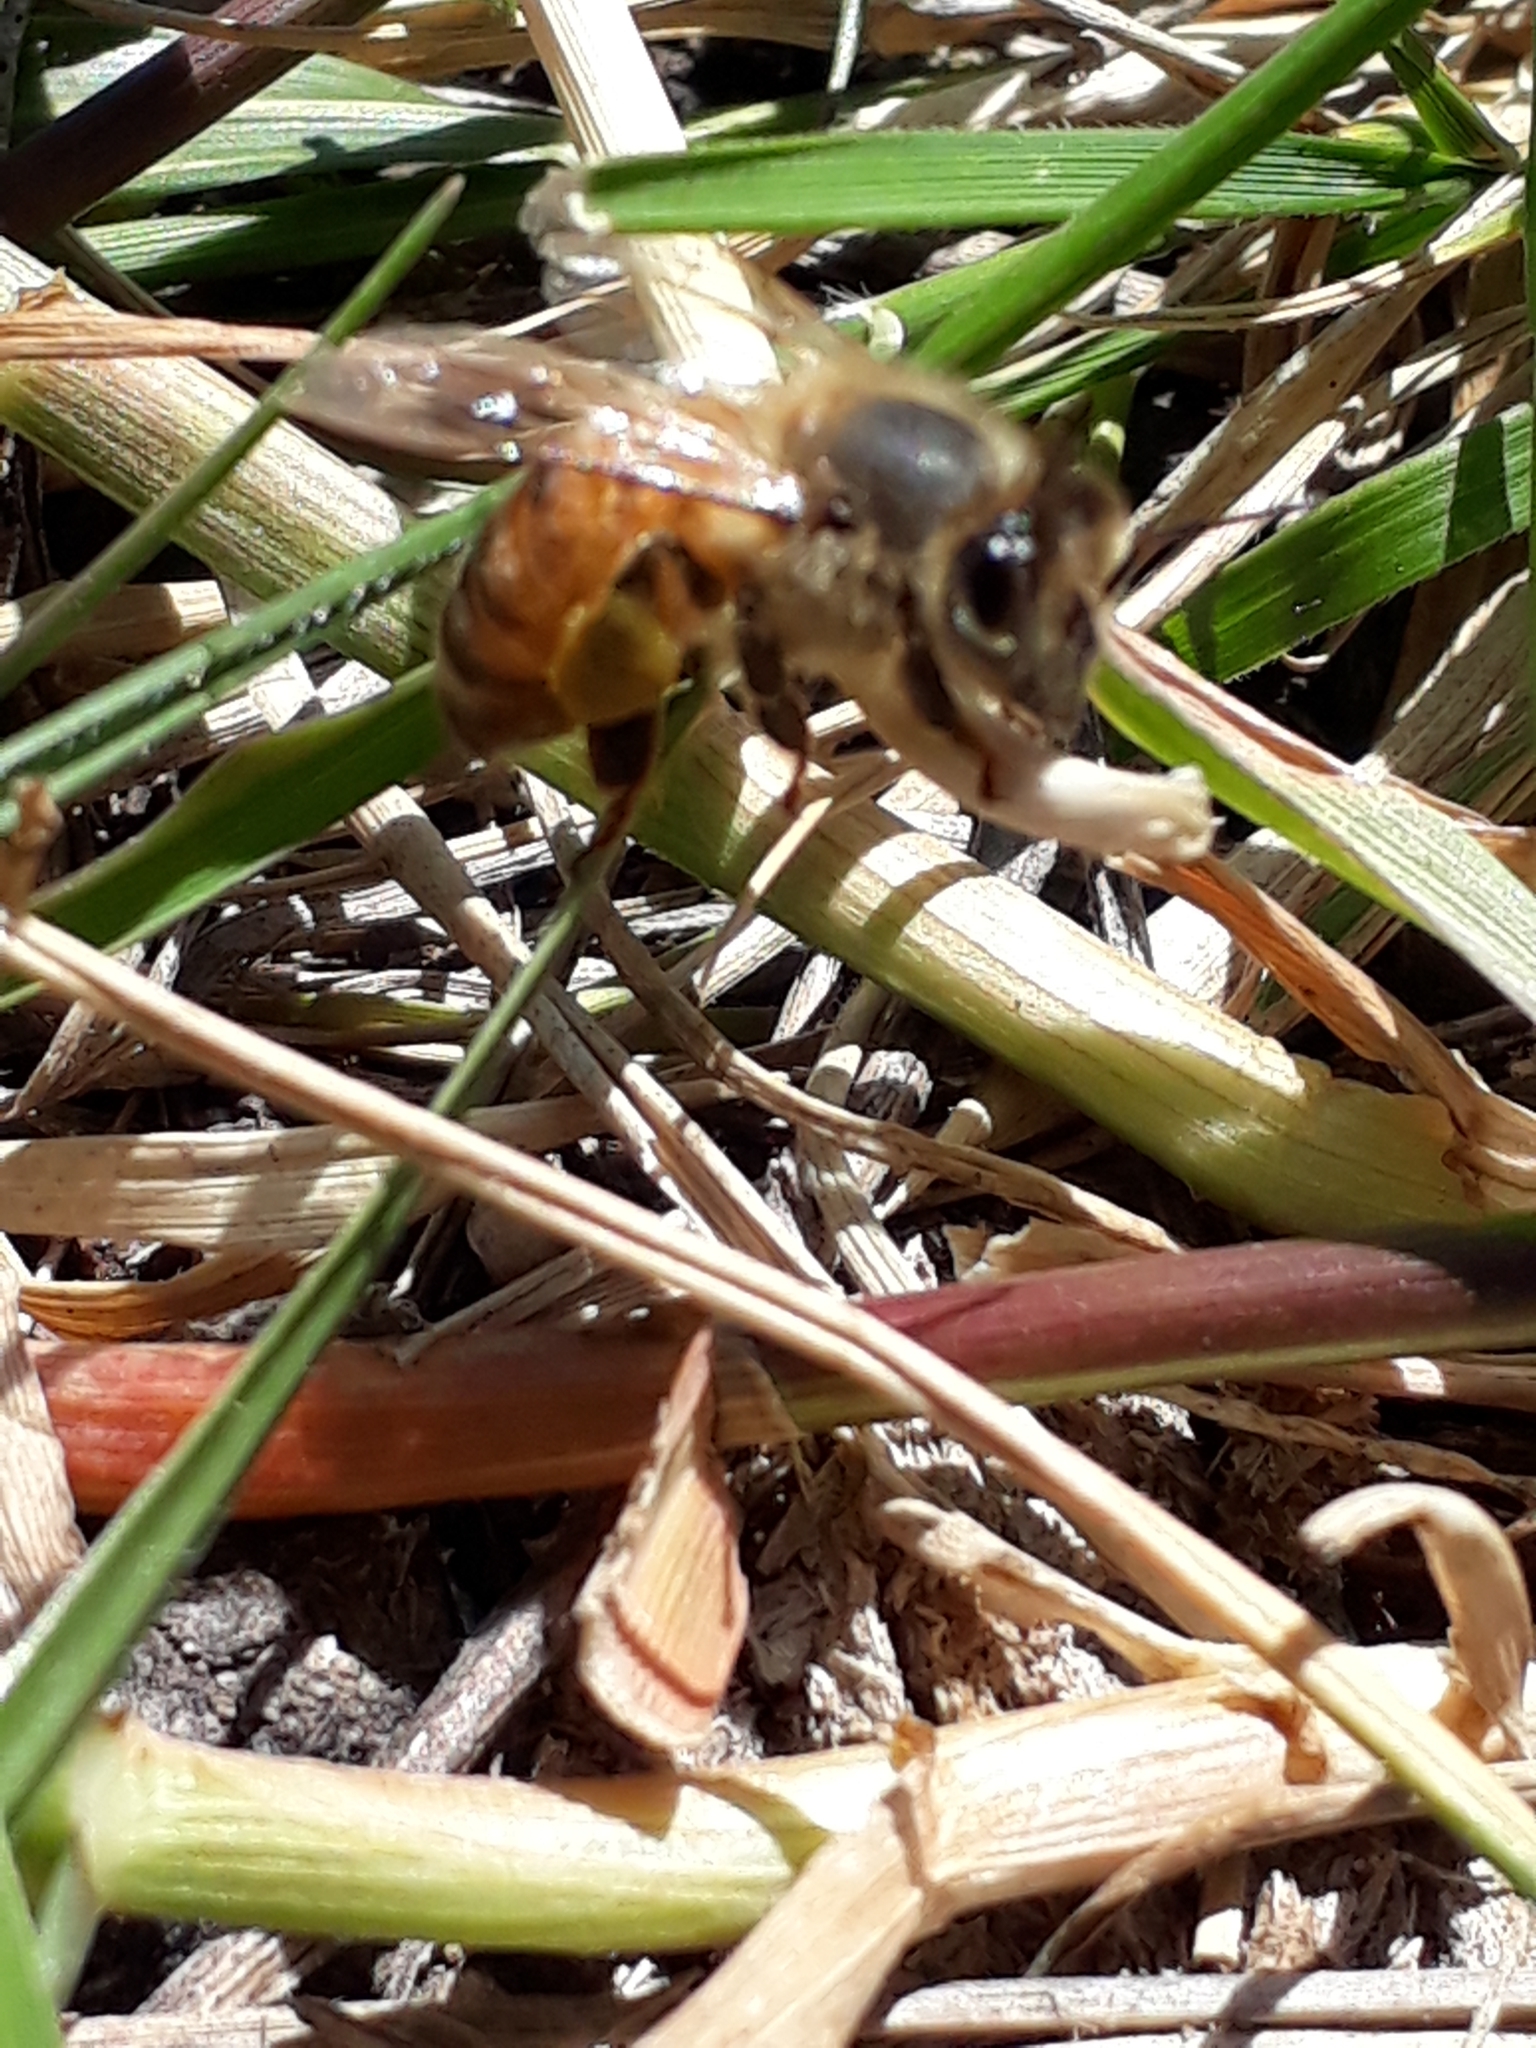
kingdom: Animalia
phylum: Arthropoda
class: Insecta
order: Hymenoptera
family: Apidae
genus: Apis
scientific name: Apis mellifera
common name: Honey bee
